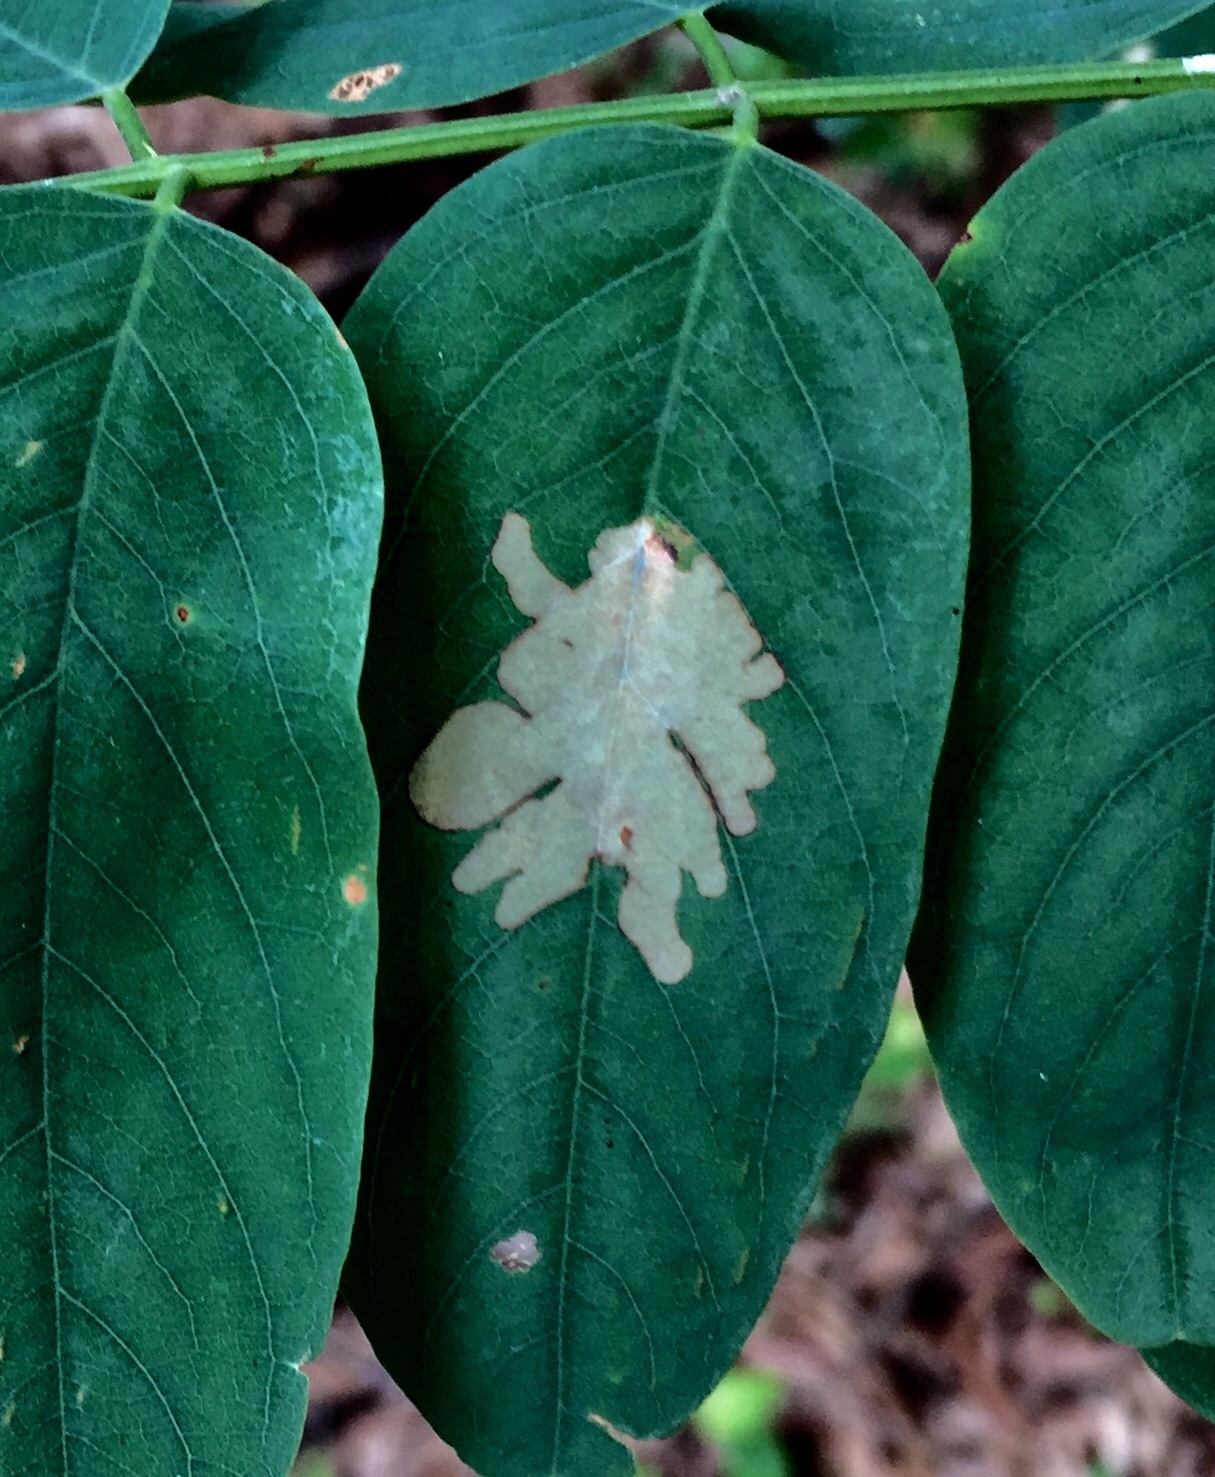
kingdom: Animalia
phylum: Arthropoda
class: Insecta
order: Lepidoptera
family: Gracillariidae
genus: Parectopa
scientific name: Parectopa robiniella
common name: Locust digitate leafminer
